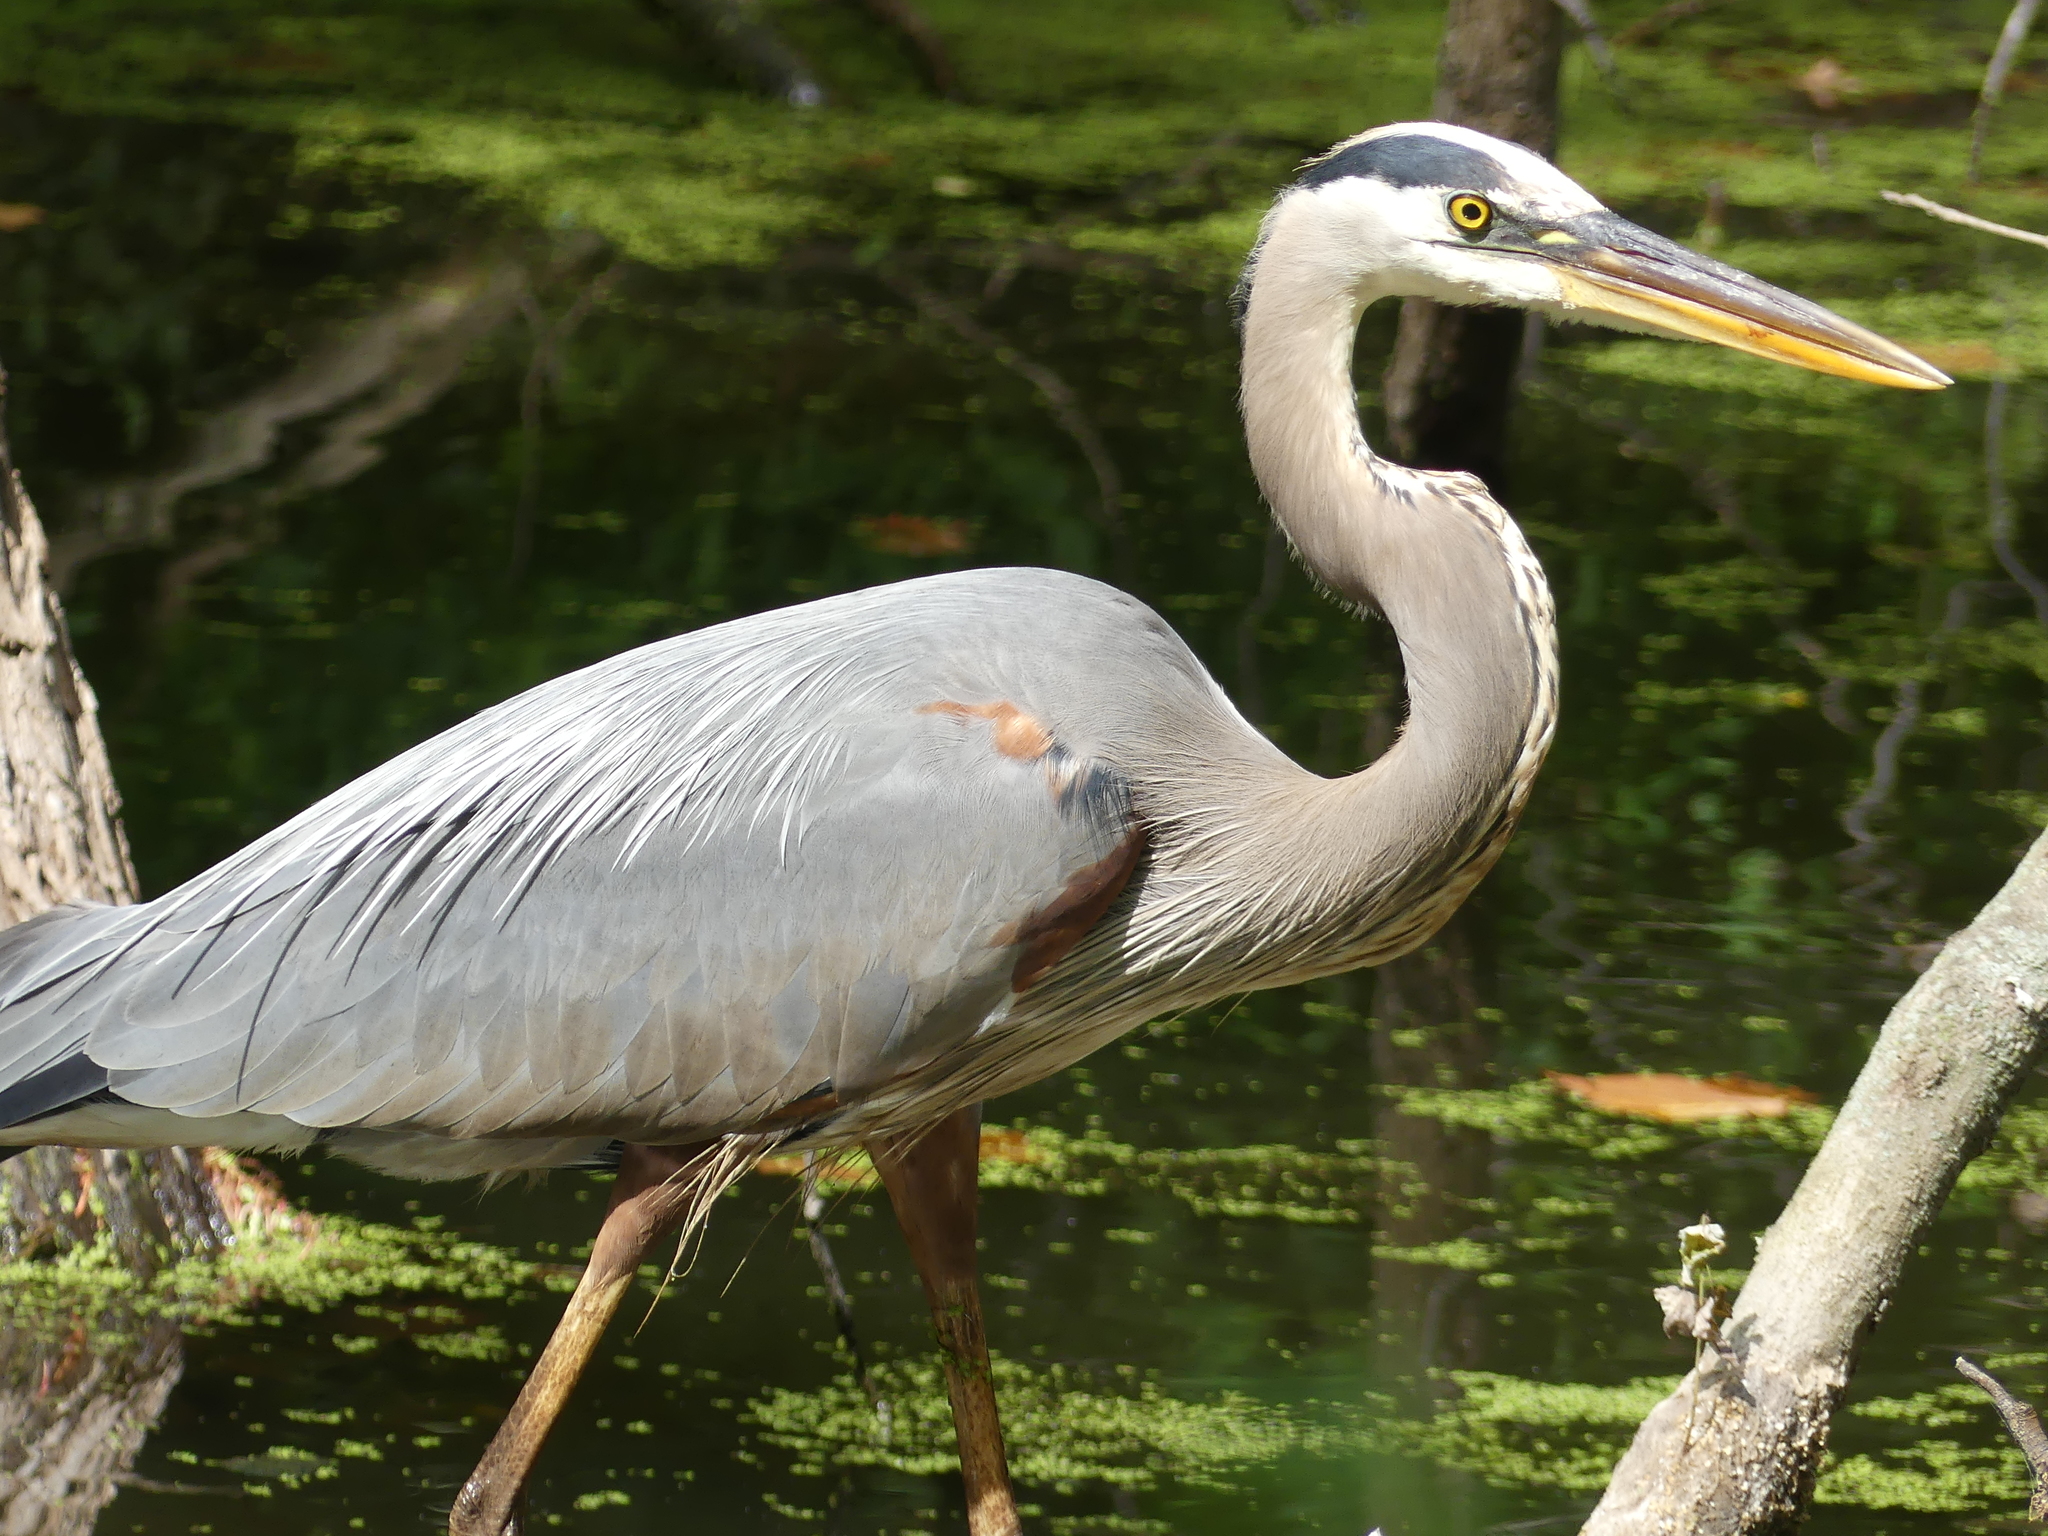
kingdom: Animalia
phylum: Chordata
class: Aves
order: Pelecaniformes
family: Ardeidae
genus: Ardea
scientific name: Ardea herodias
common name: Great blue heron
